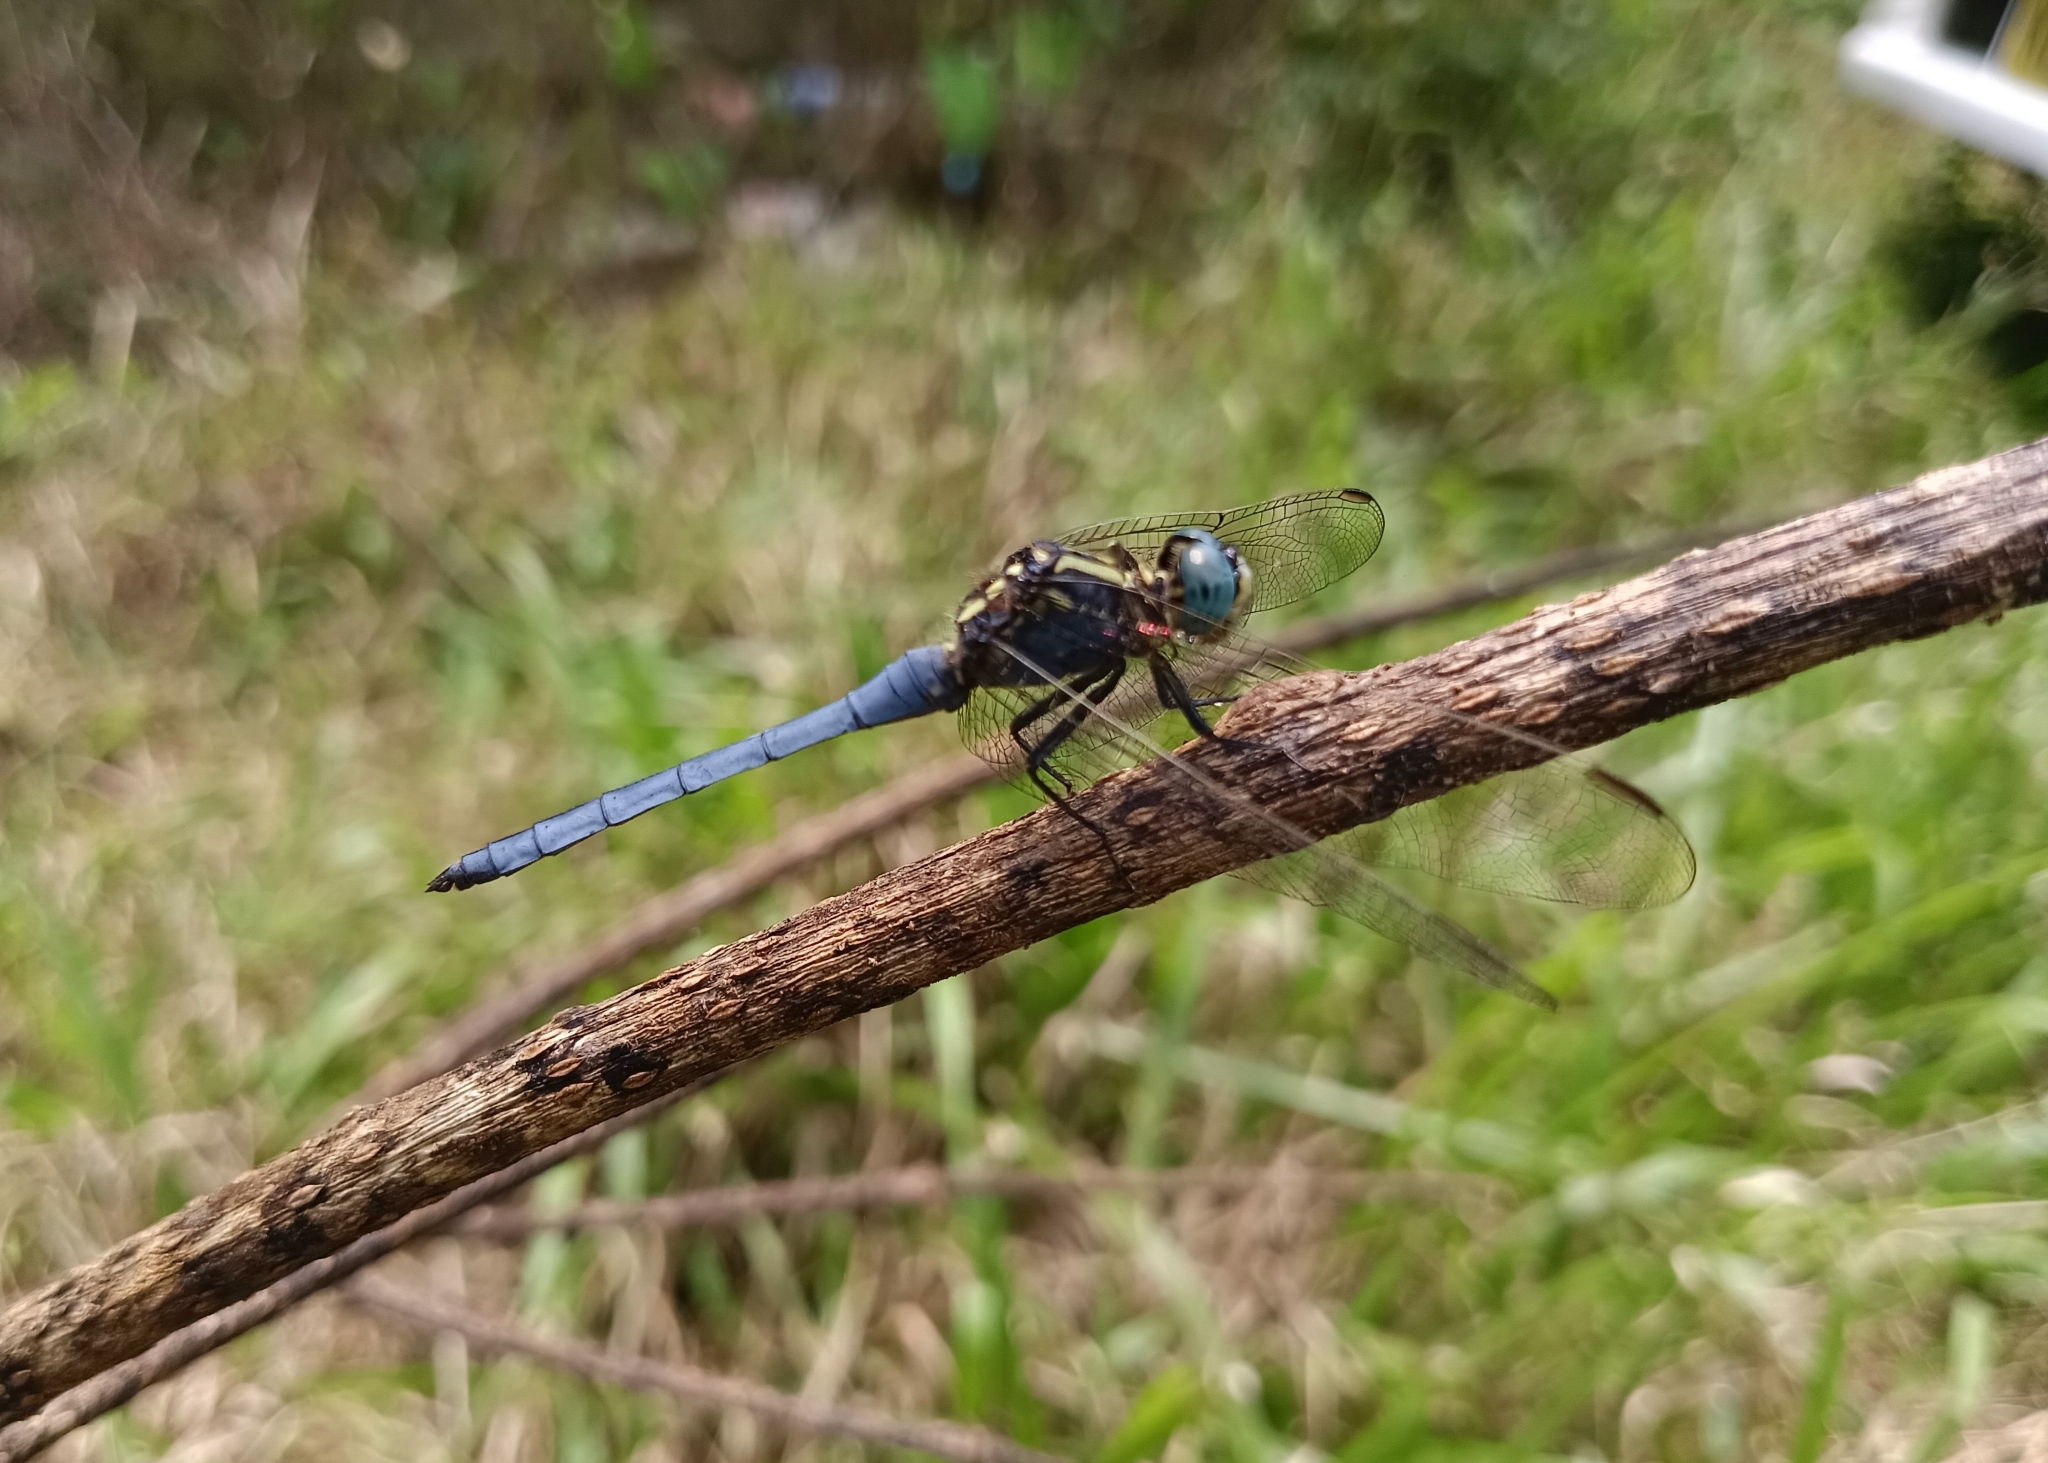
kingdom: Animalia
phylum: Arthropoda
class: Insecta
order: Odonata
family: Libellulidae
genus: Orthetrum
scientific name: Orthetrum luzonicum
